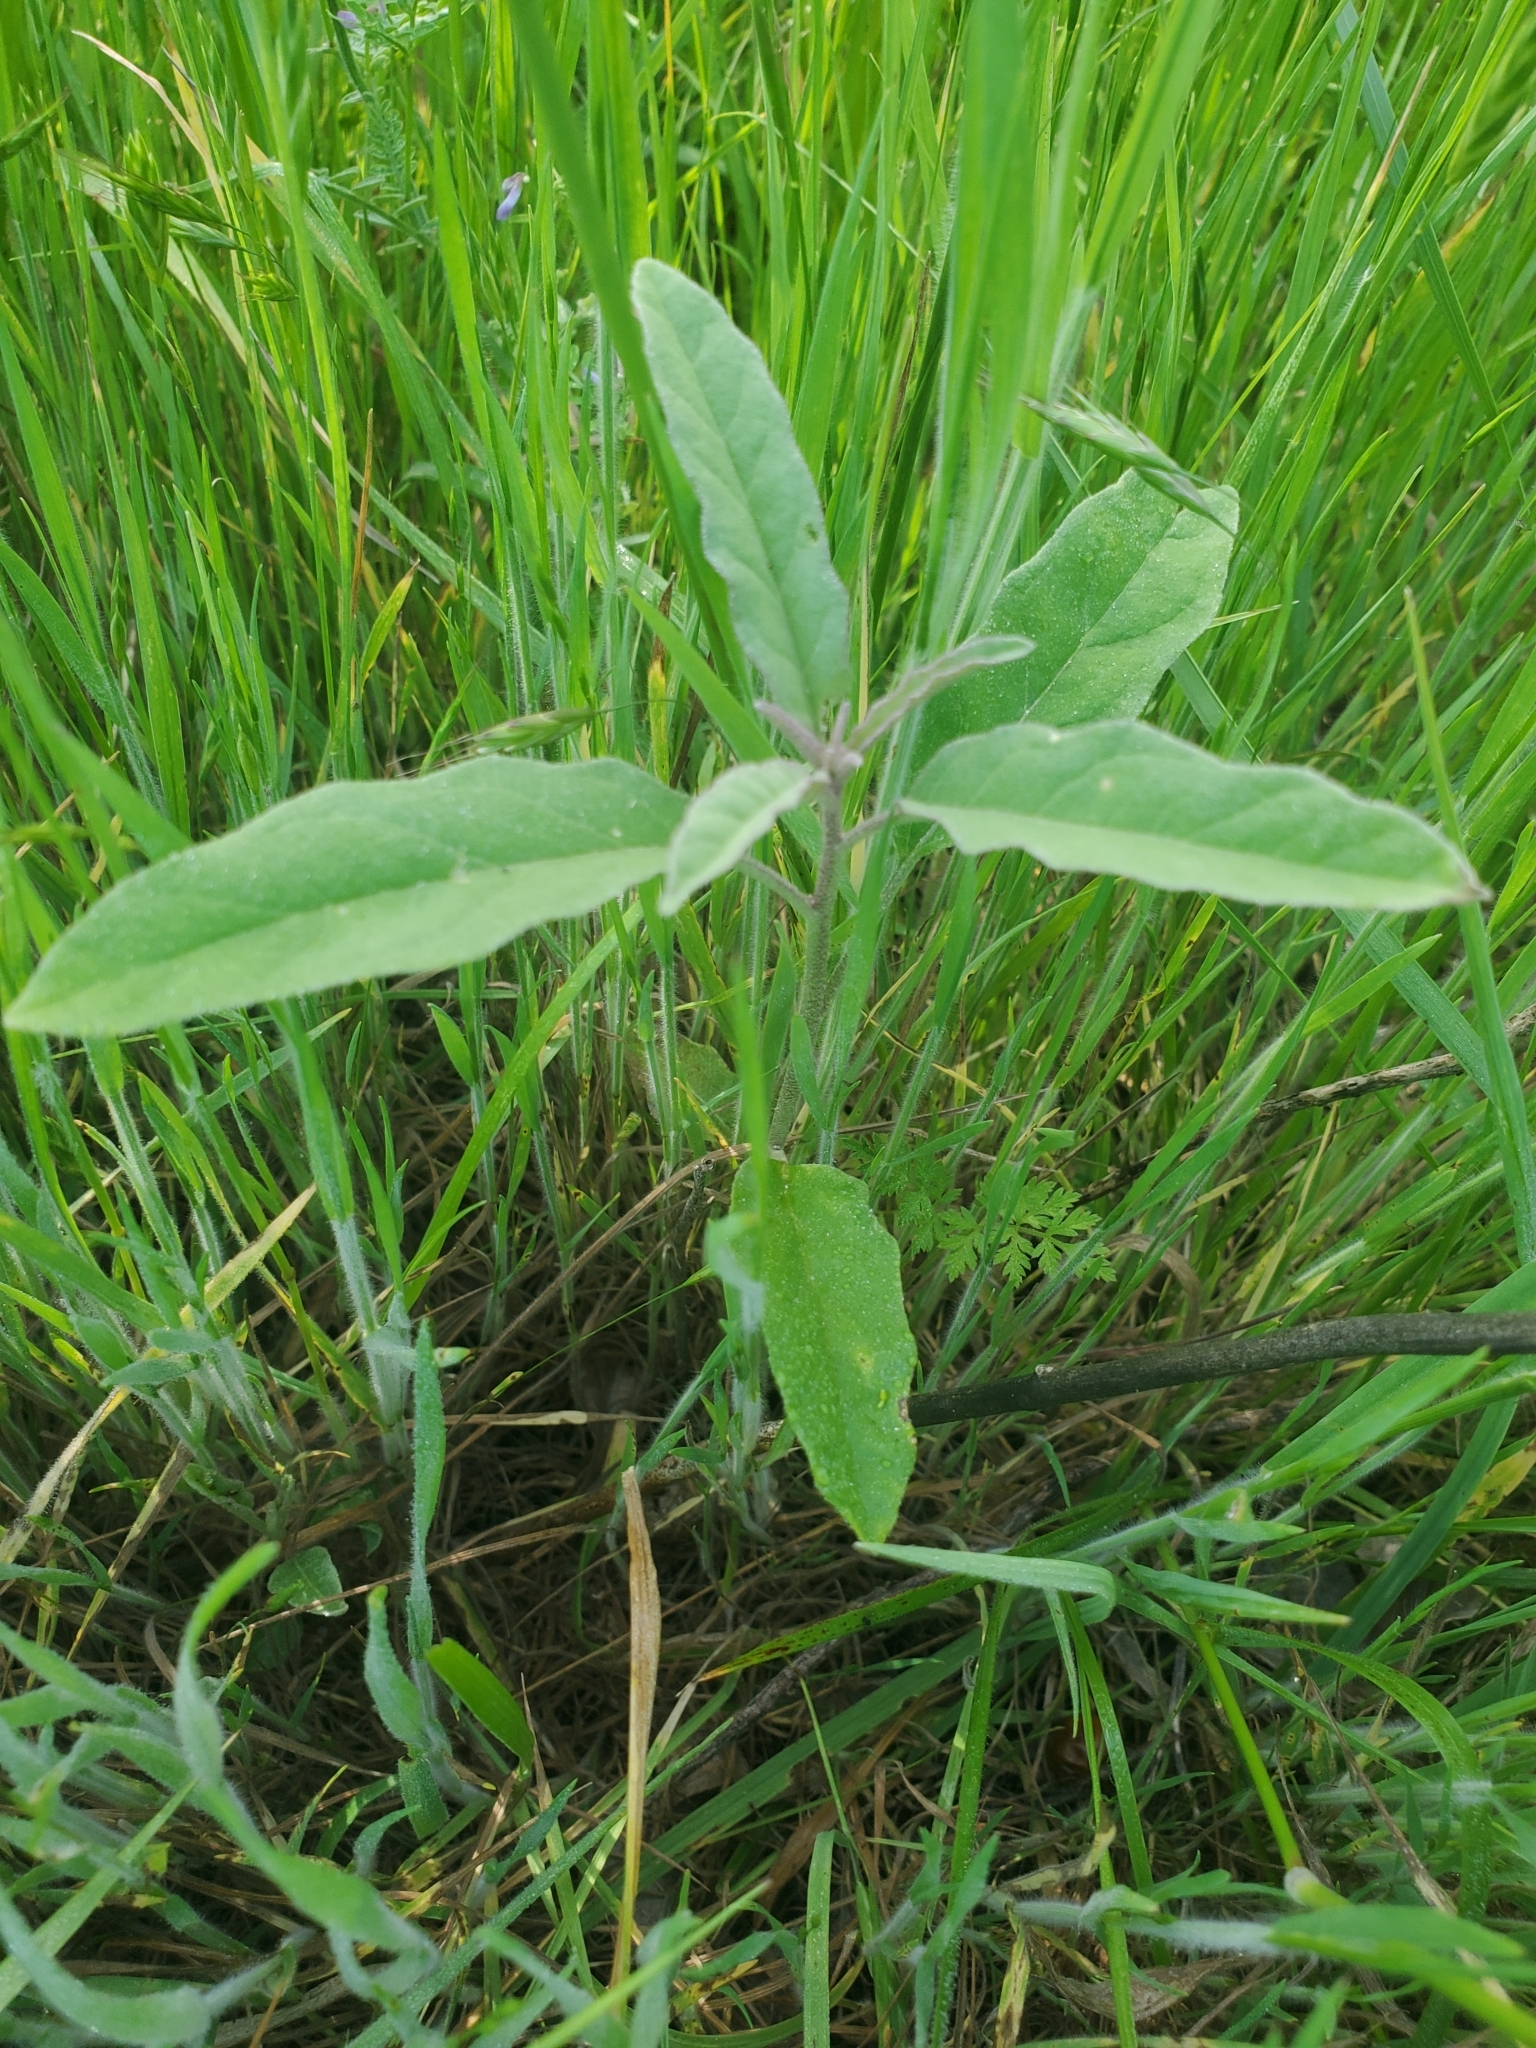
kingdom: Plantae
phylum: Tracheophyta
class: Magnoliopsida
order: Solanales
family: Solanaceae
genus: Solanum
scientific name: Solanum elaeagnifolium
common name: Silverleaf nightshade
